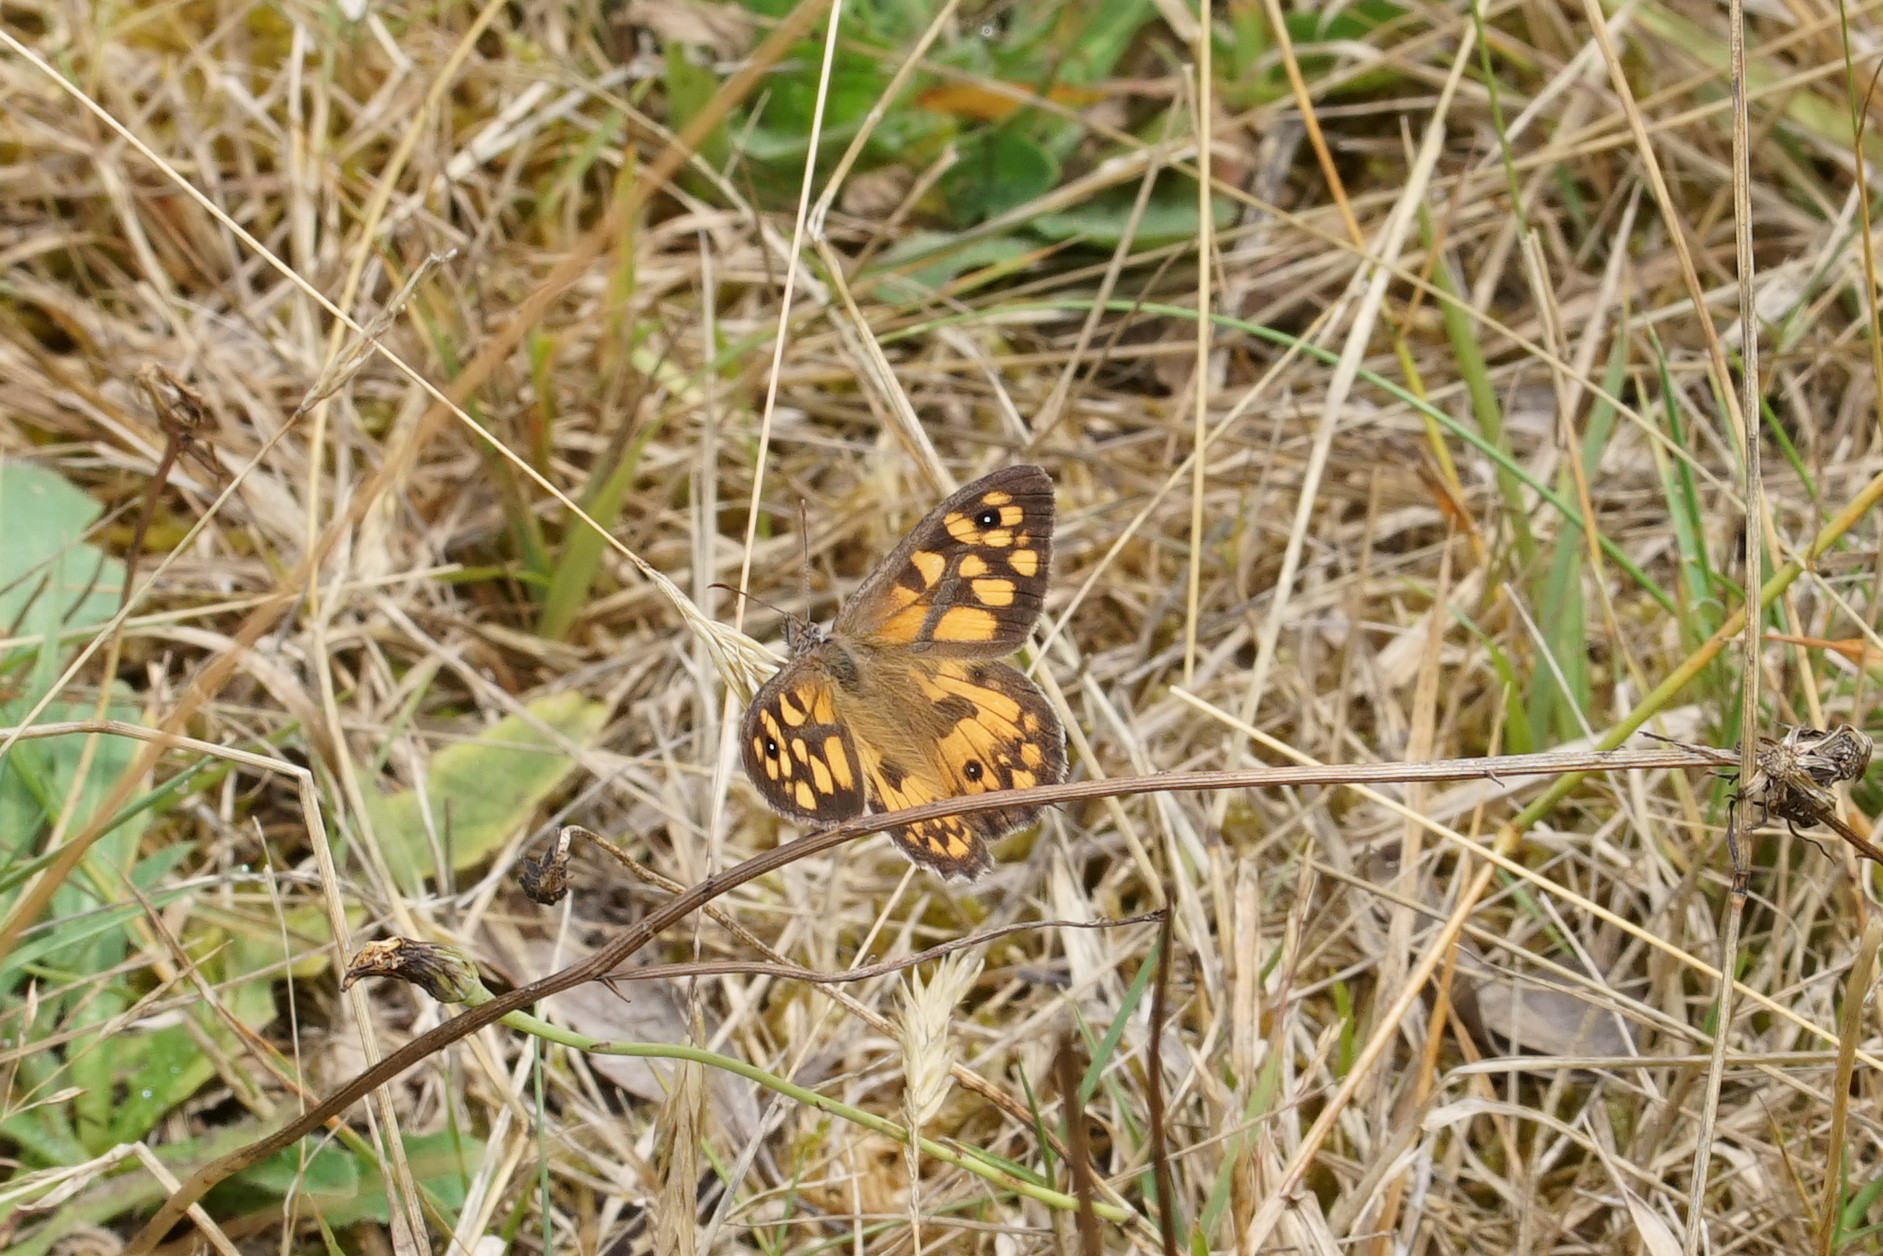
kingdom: Animalia
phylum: Arthropoda
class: Insecta
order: Lepidoptera
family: Nymphalidae
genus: Geitoneura
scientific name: Geitoneura klugii
